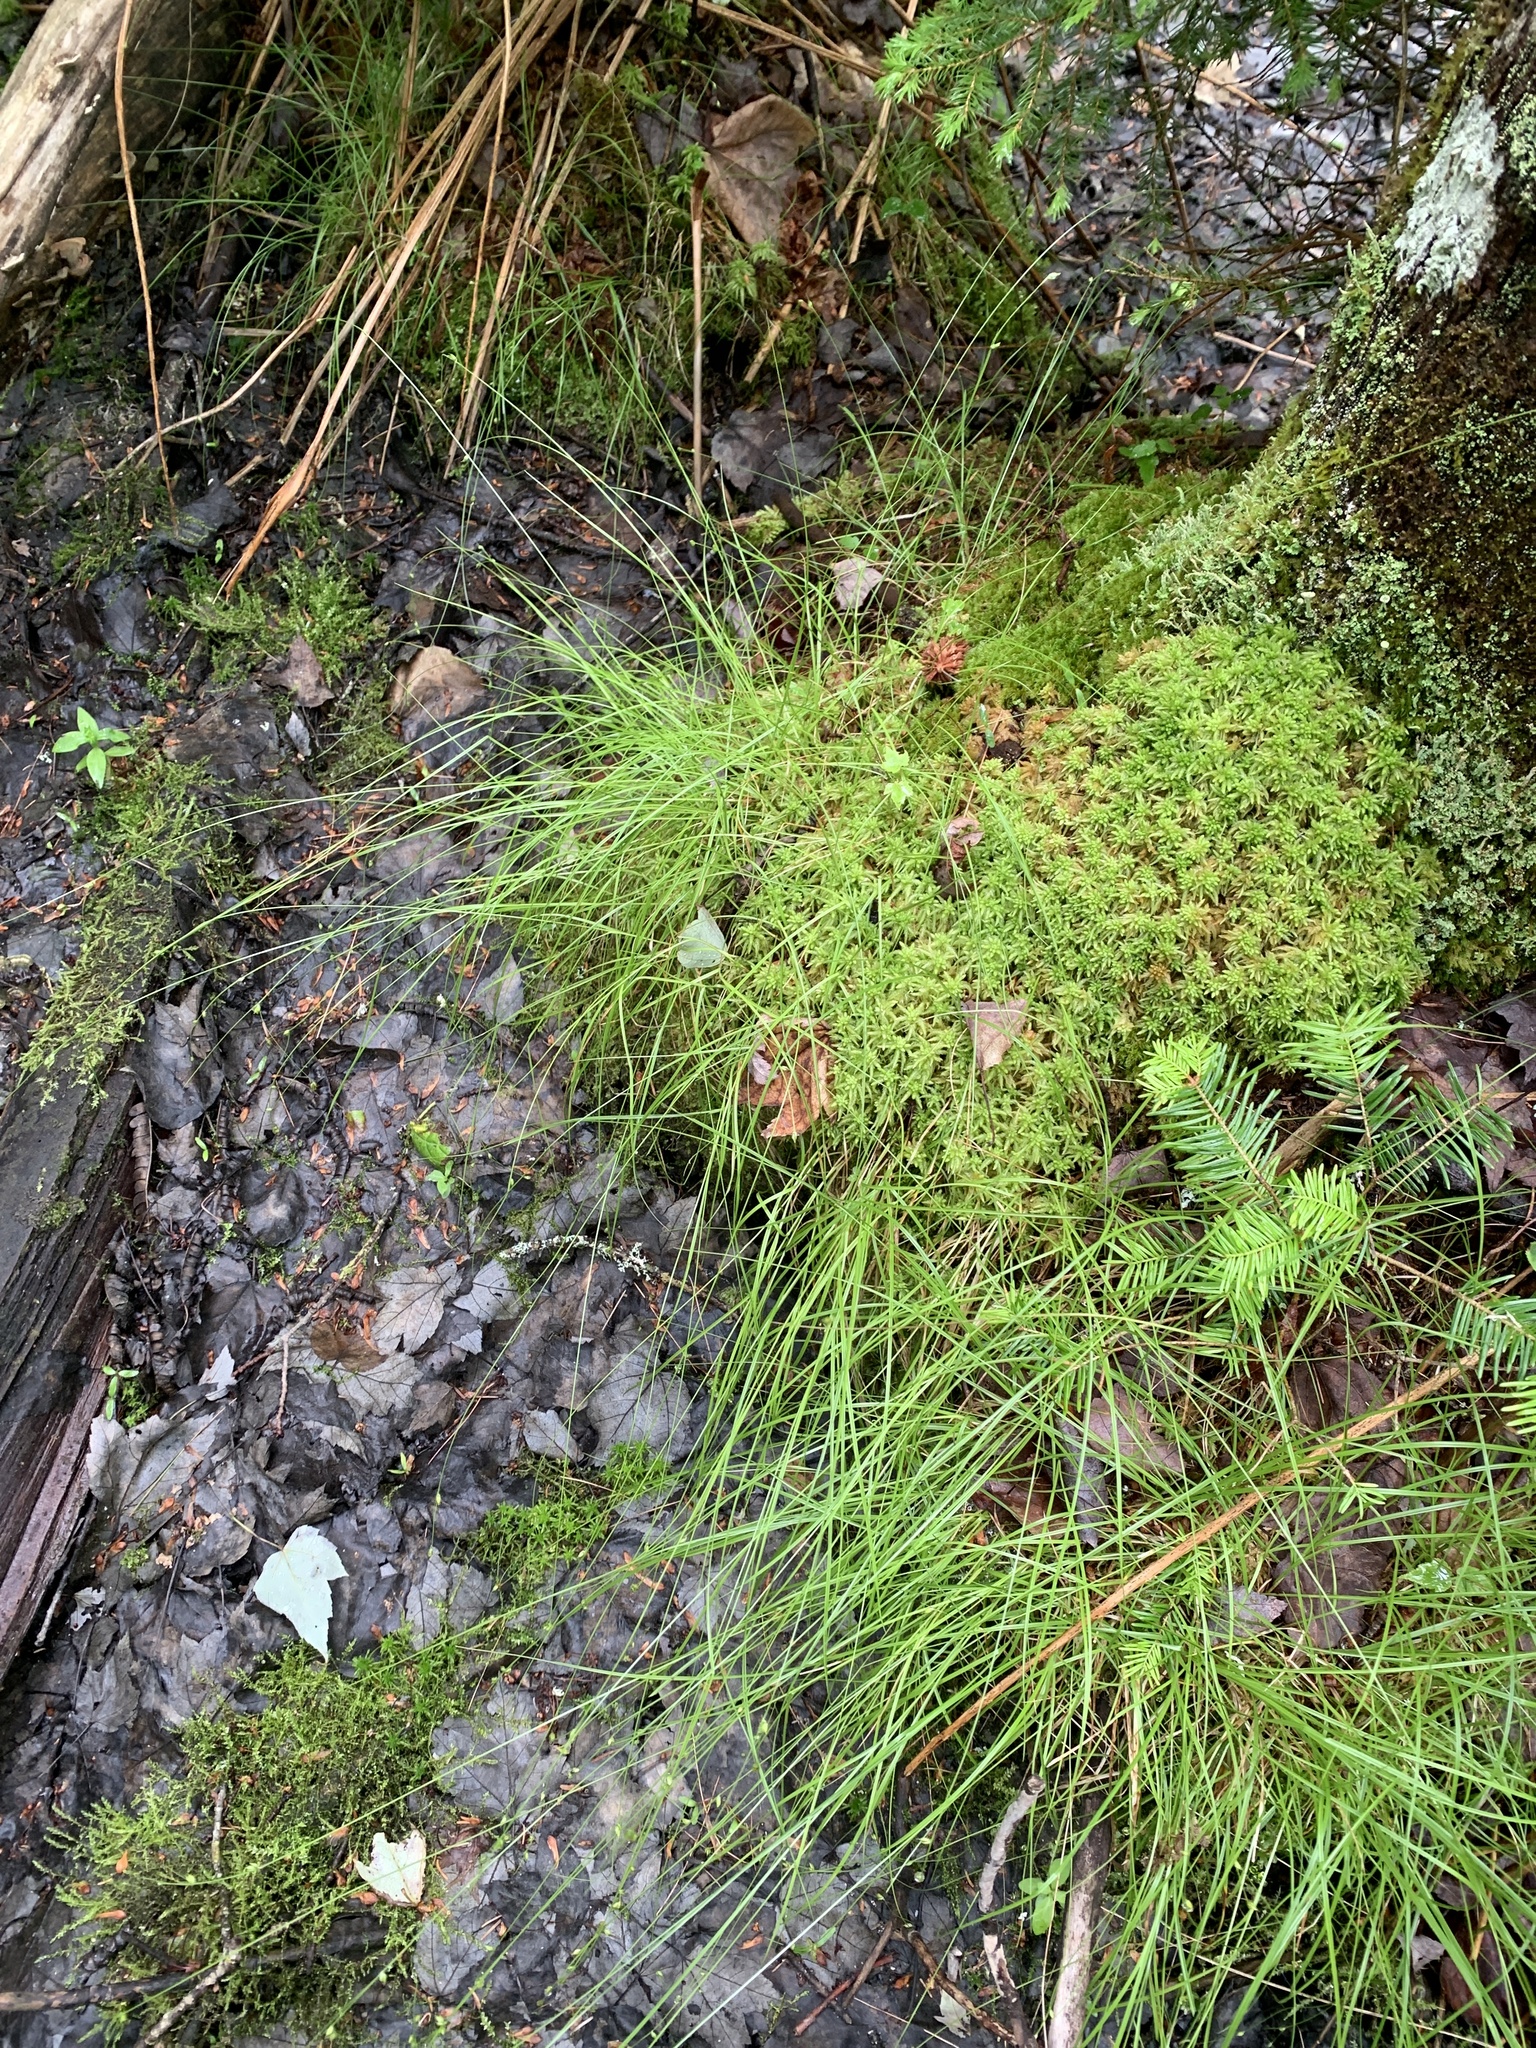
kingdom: Plantae
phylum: Tracheophyta
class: Liliopsida
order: Poales
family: Cyperaceae
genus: Carex
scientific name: Carex trisperma
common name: Three-seeded sedge
